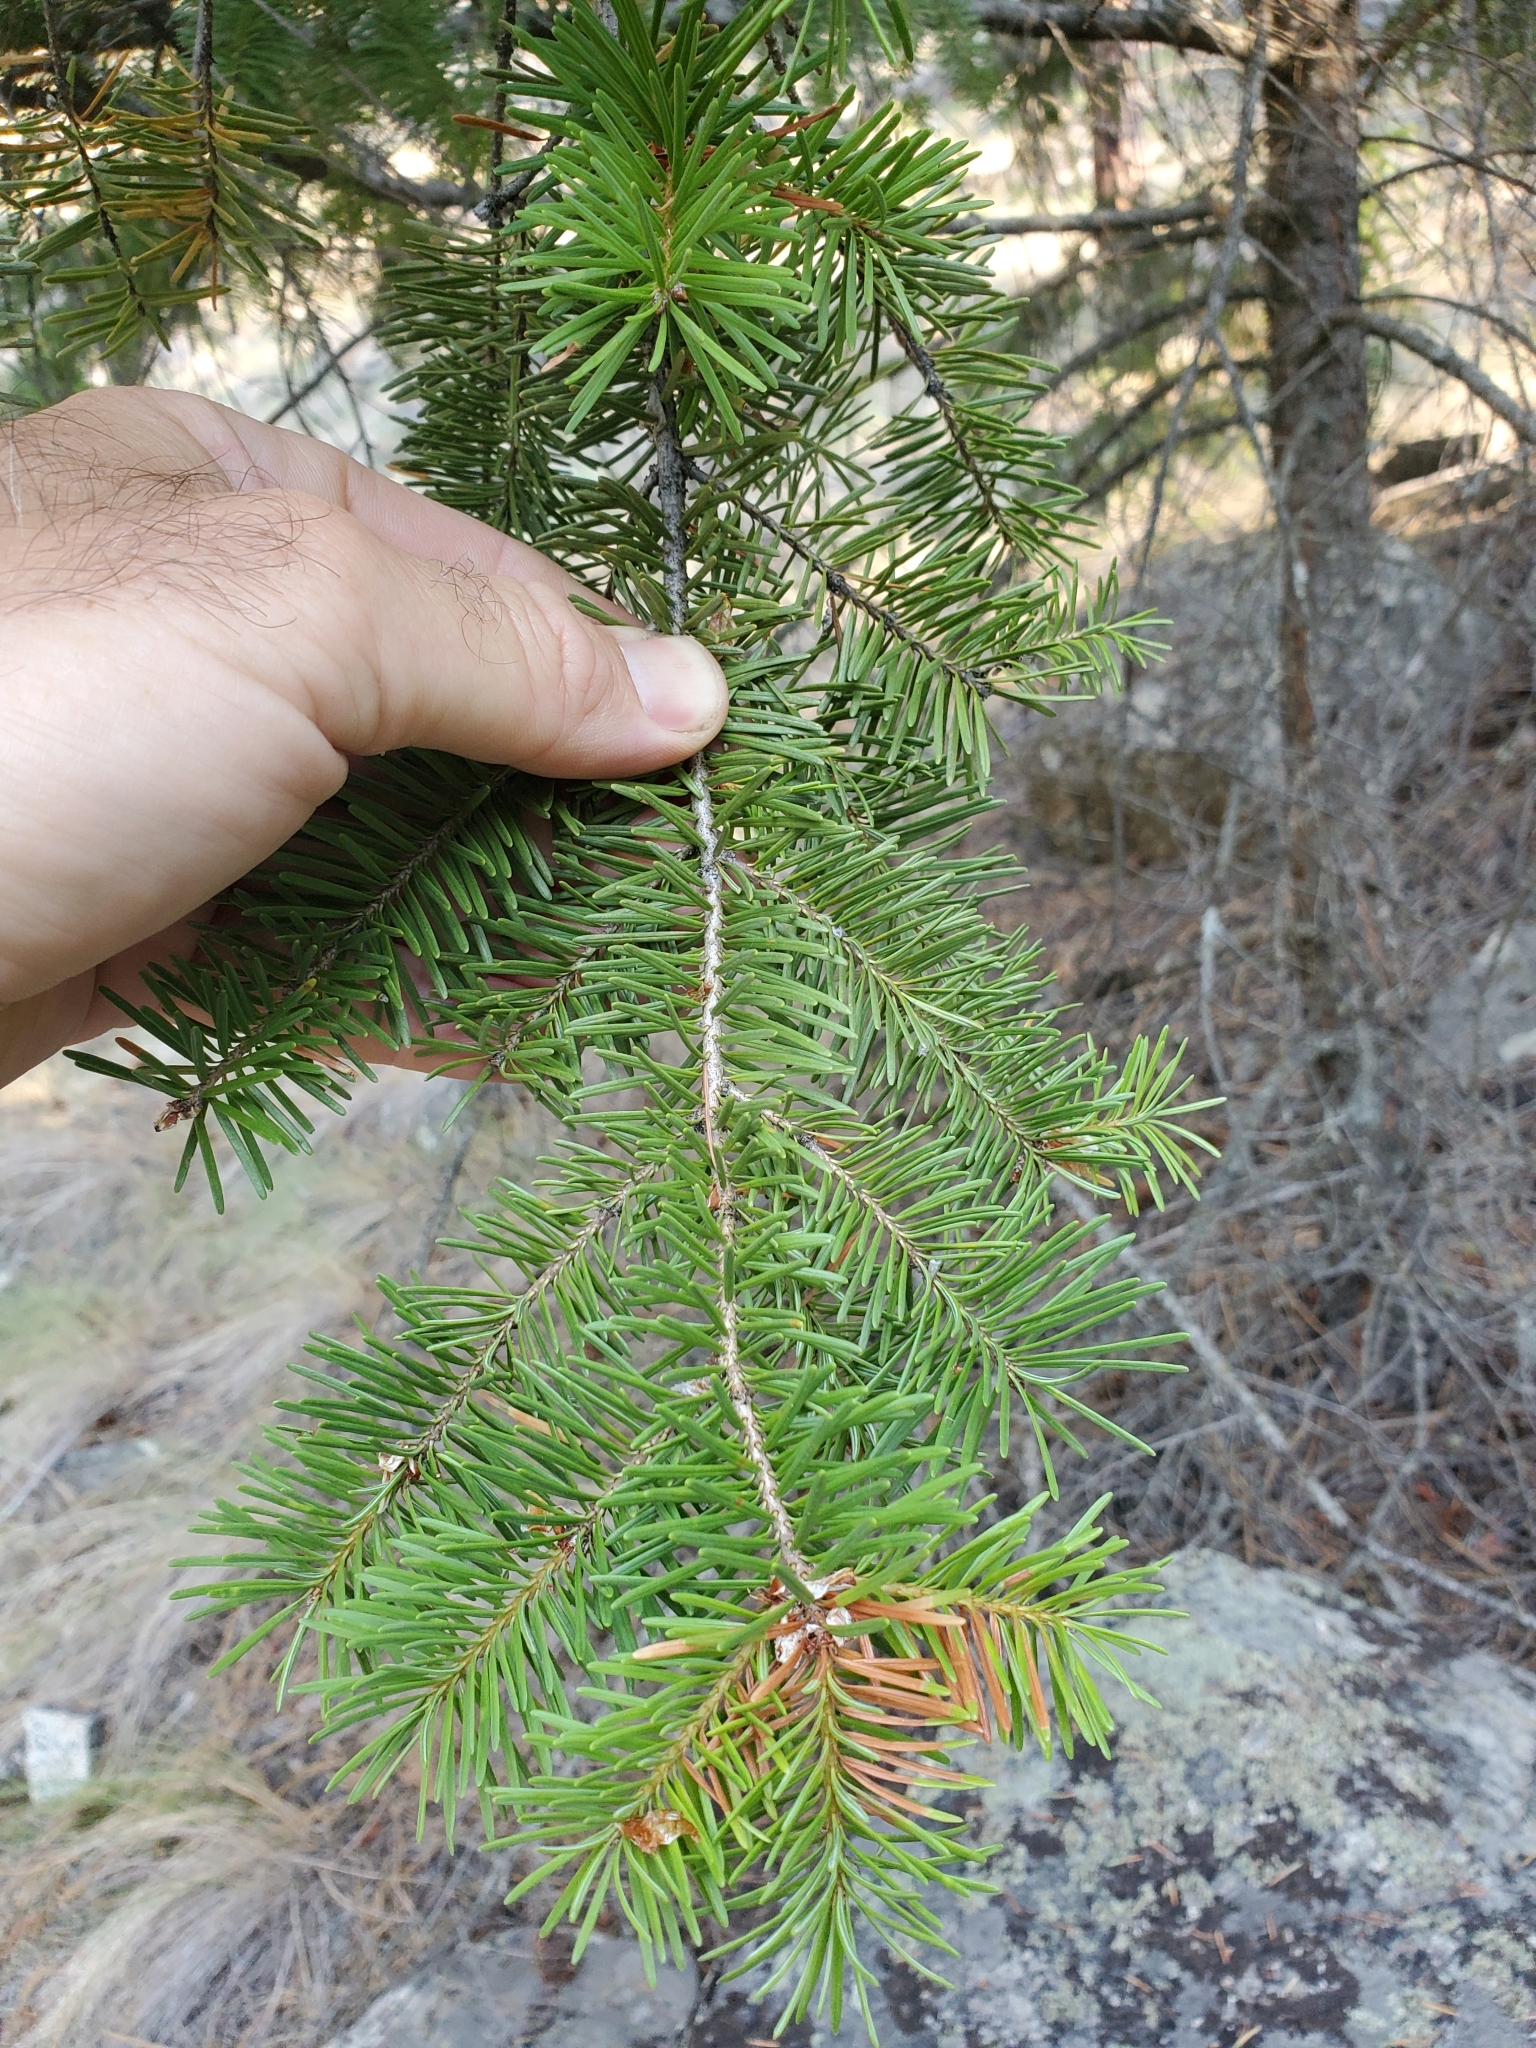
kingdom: Plantae
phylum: Tracheophyta
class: Pinopsida
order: Pinales
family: Pinaceae
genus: Pseudotsuga
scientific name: Pseudotsuga menziesii
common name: Douglas fir
